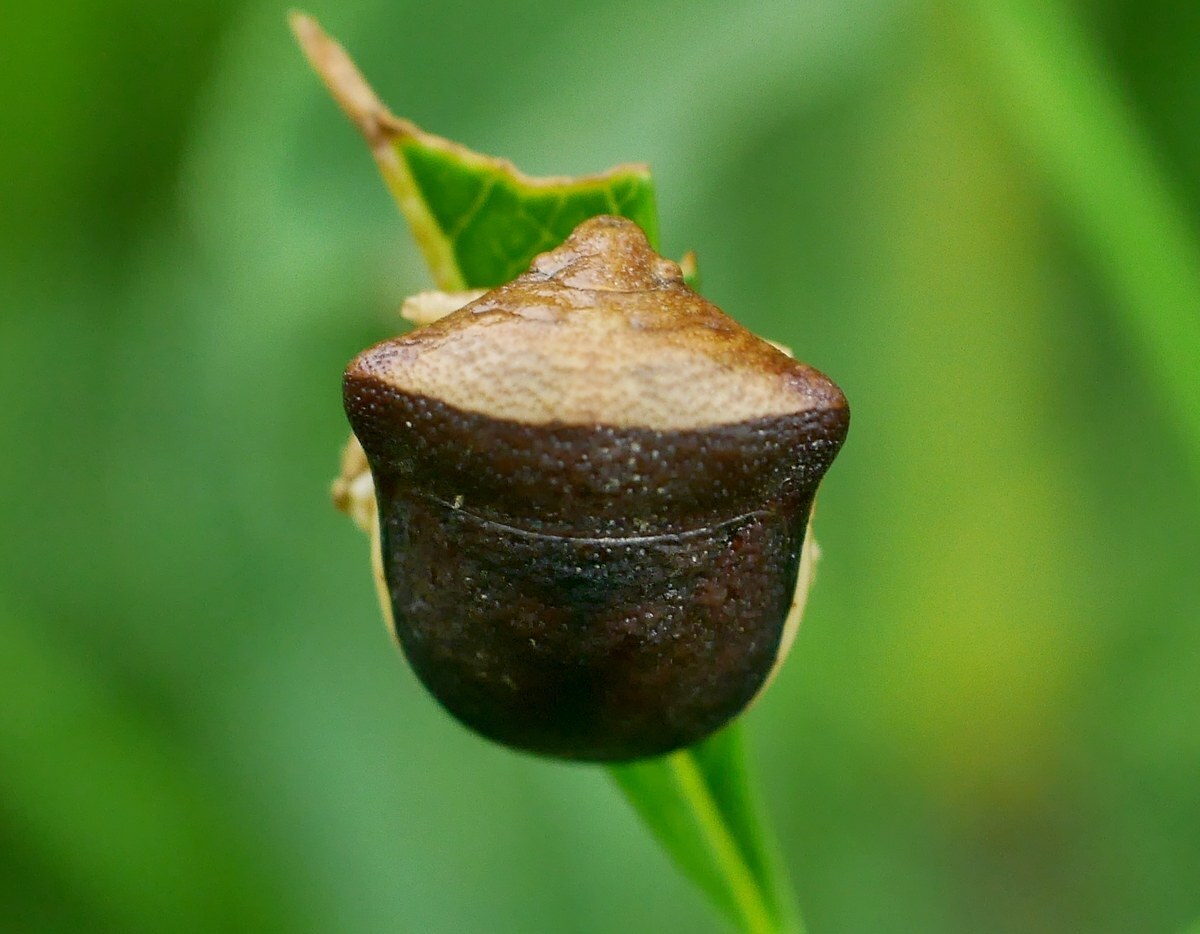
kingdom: Animalia
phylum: Arthropoda
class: Insecta
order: Hemiptera
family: Pentatomidae
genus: Ventocoris
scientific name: Ventocoris rusticus
